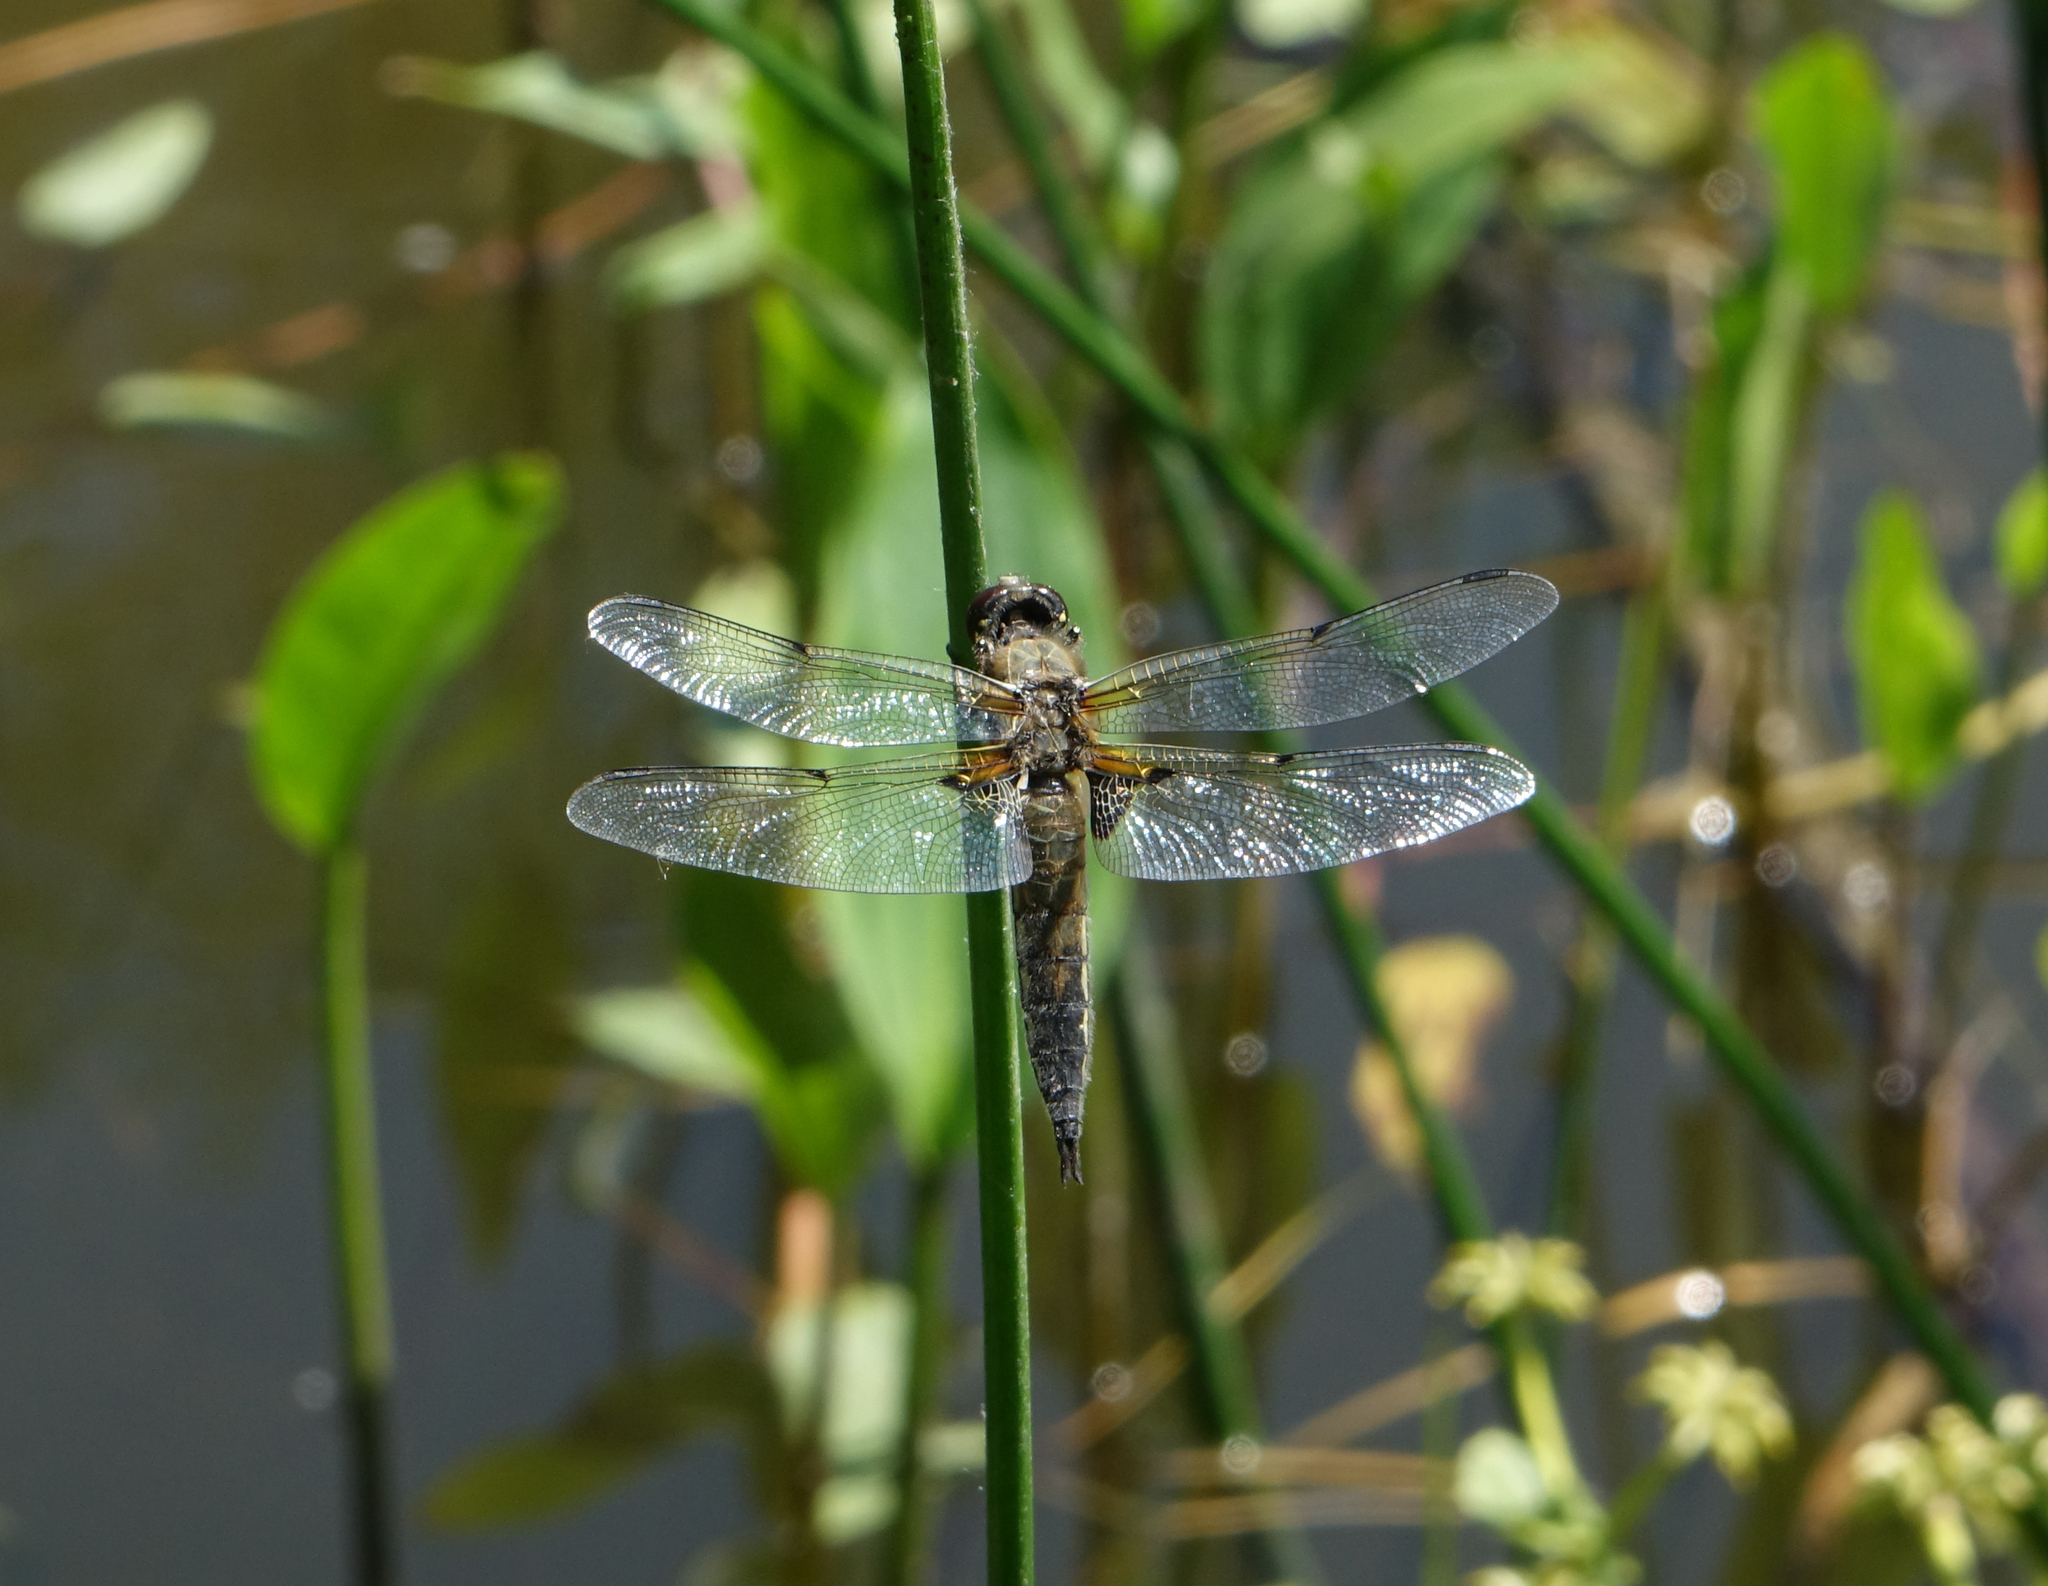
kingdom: Animalia
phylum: Arthropoda
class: Insecta
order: Odonata
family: Libellulidae
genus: Libellula
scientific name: Libellula quadrimaculata
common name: Four-spotted chaser
